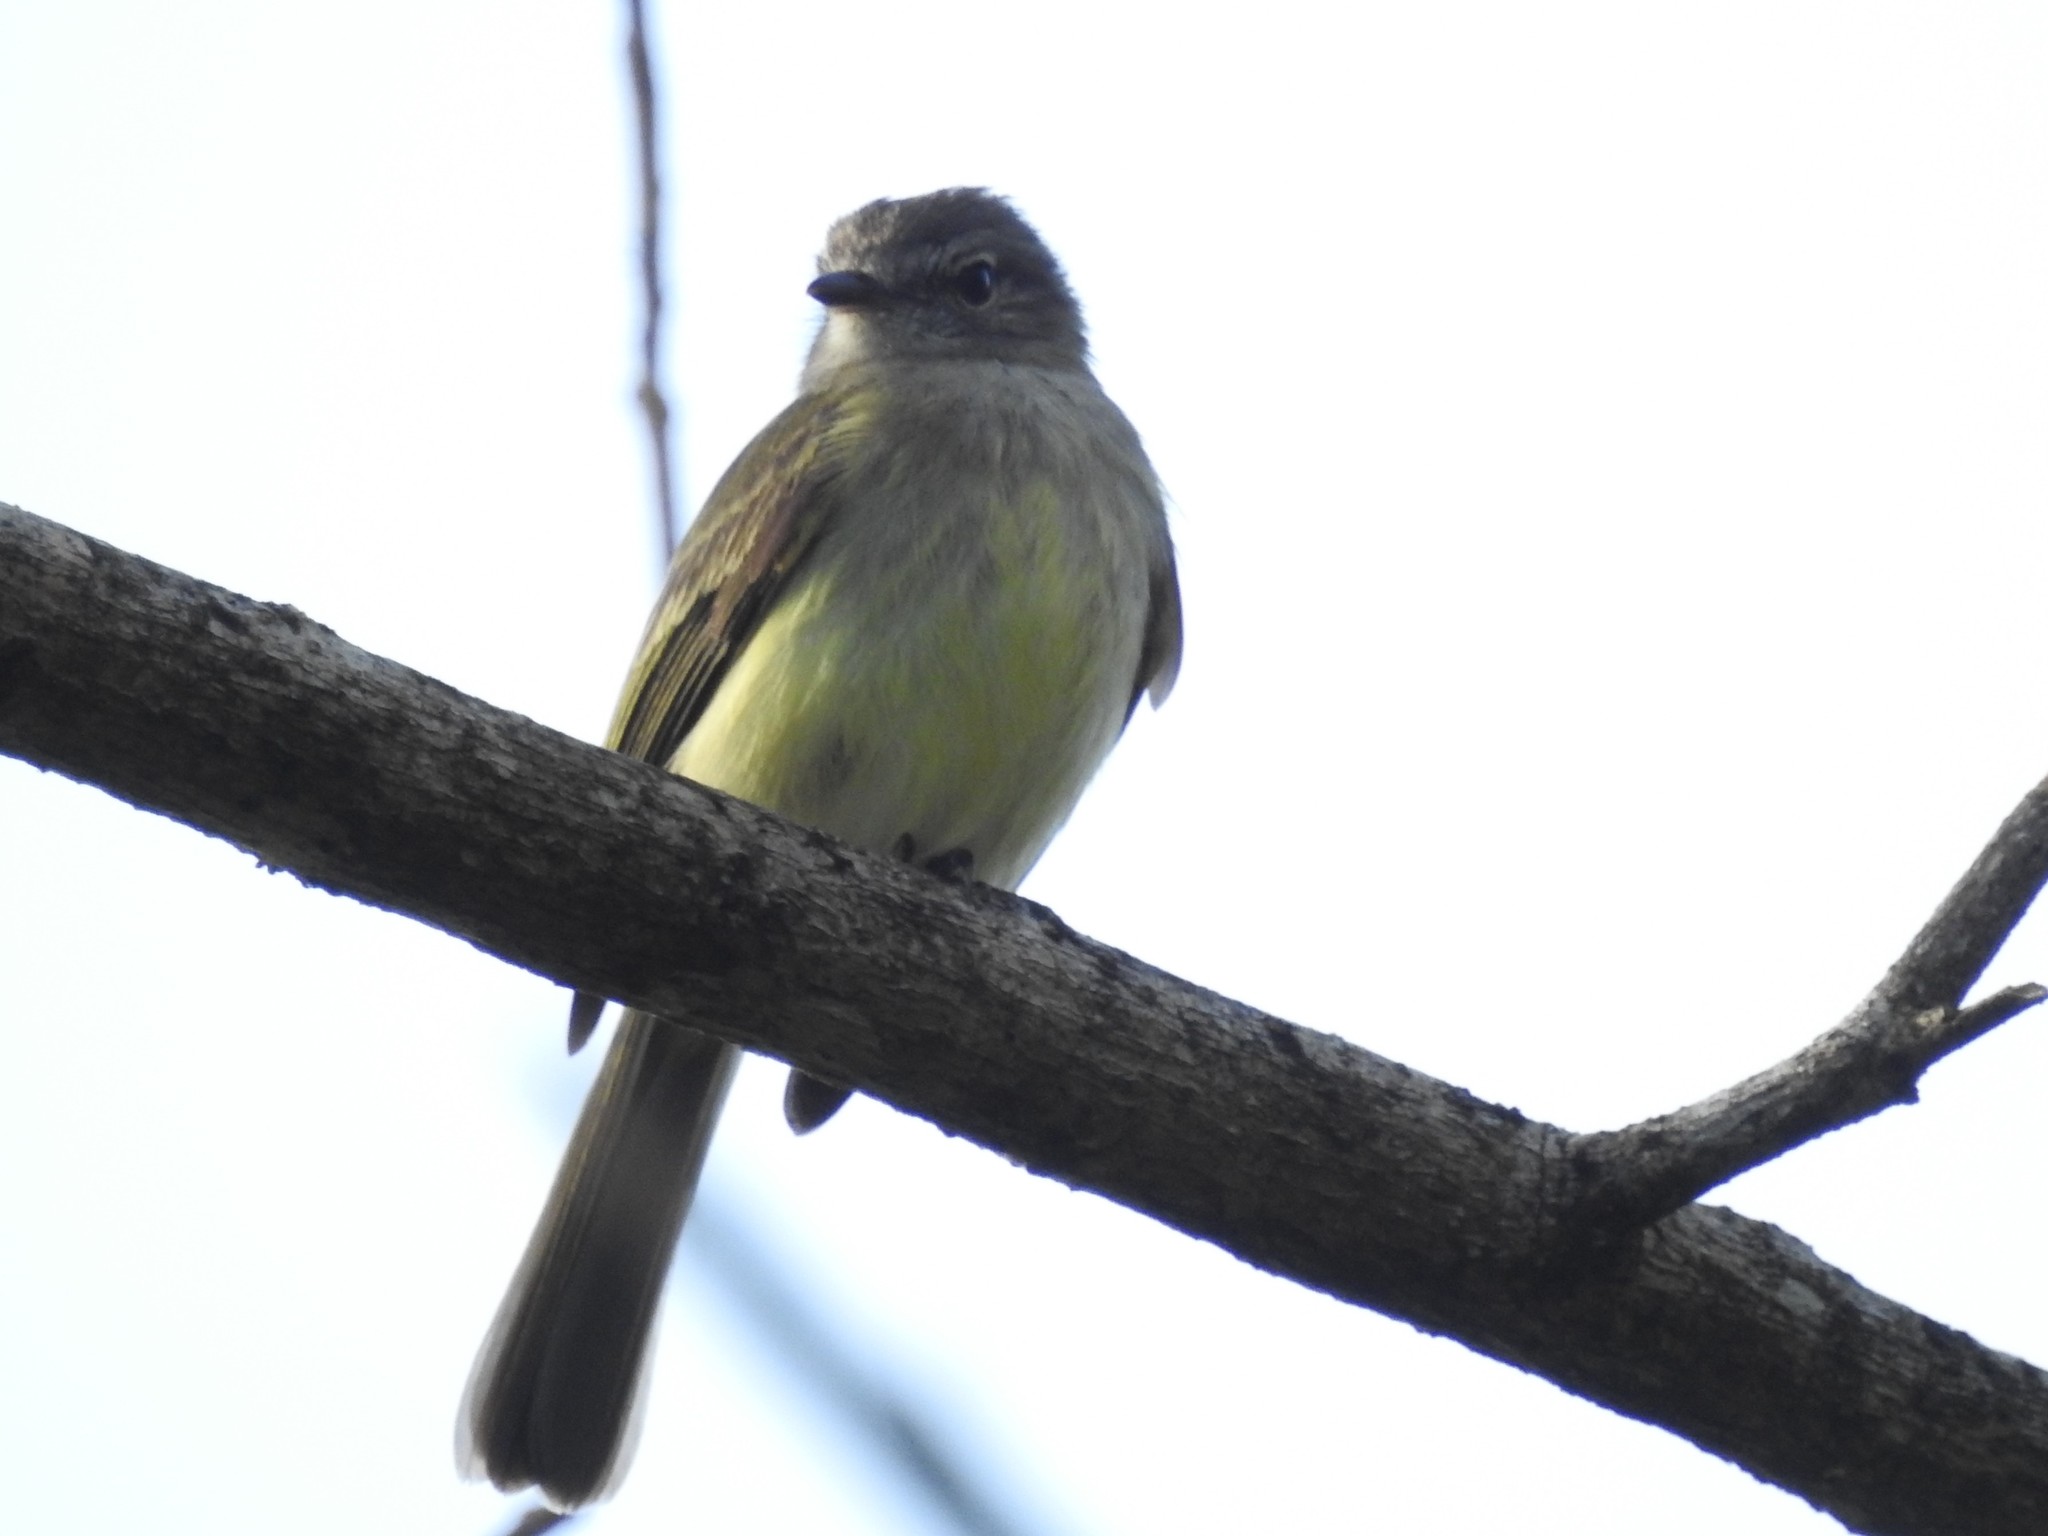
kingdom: Animalia
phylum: Chordata
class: Aves
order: Passeriformes
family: Tyrannidae
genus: Myiopagis
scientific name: Myiopagis viridicata
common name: Greenish elaenia
